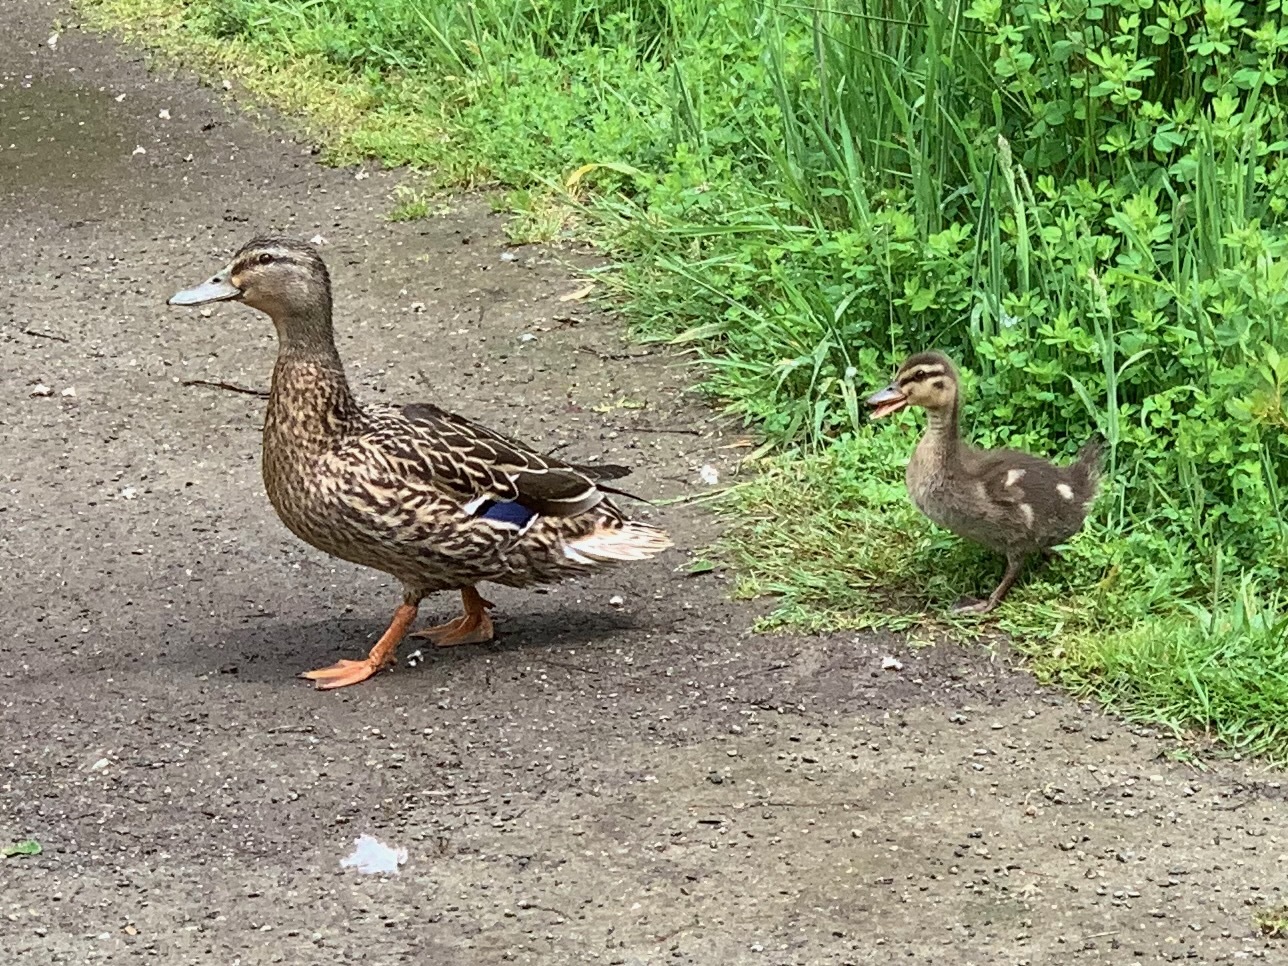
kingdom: Animalia
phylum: Chordata
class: Aves
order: Anseriformes
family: Anatidae
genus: Anas
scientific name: Anas platyrhynchos
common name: Mallard
